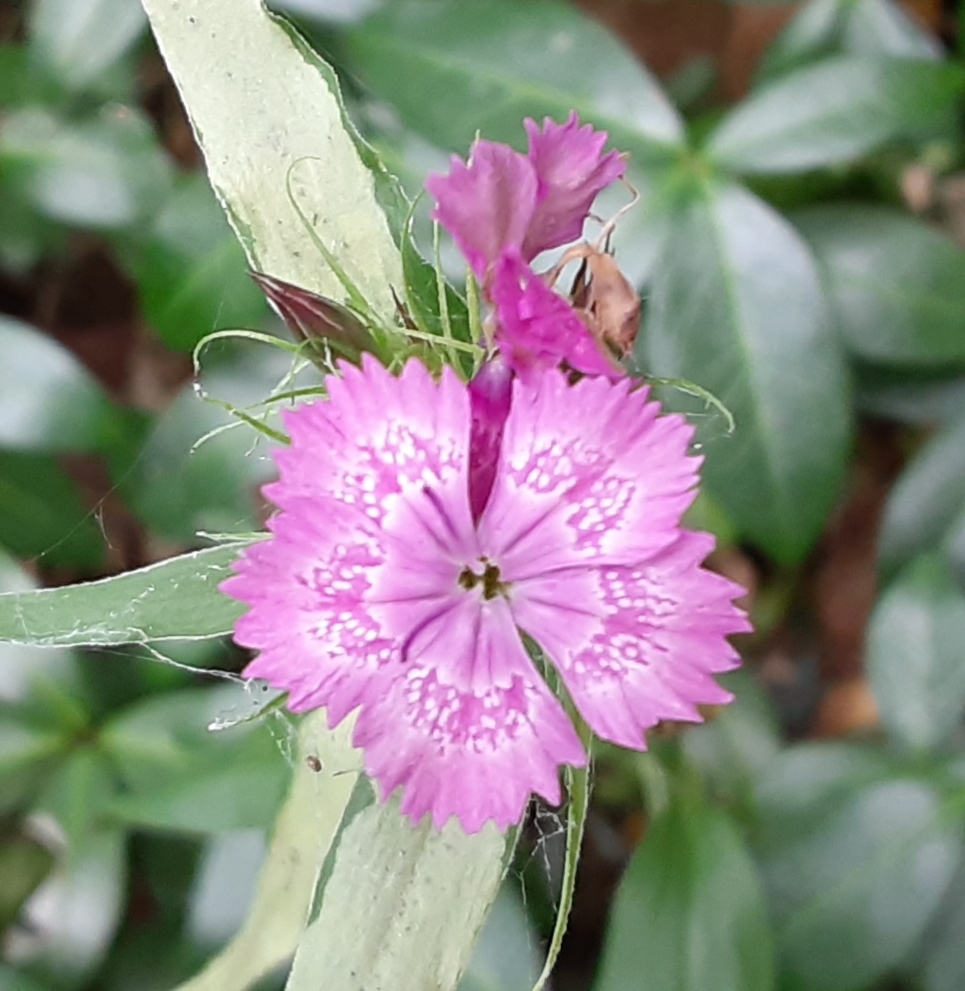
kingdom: Plantae
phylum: Tracheophyta
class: Magnoliopsida
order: Caryophyllales
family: Caryophyllaceae
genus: Dianthus
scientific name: Dianthus barbatus
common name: Sweet-william
